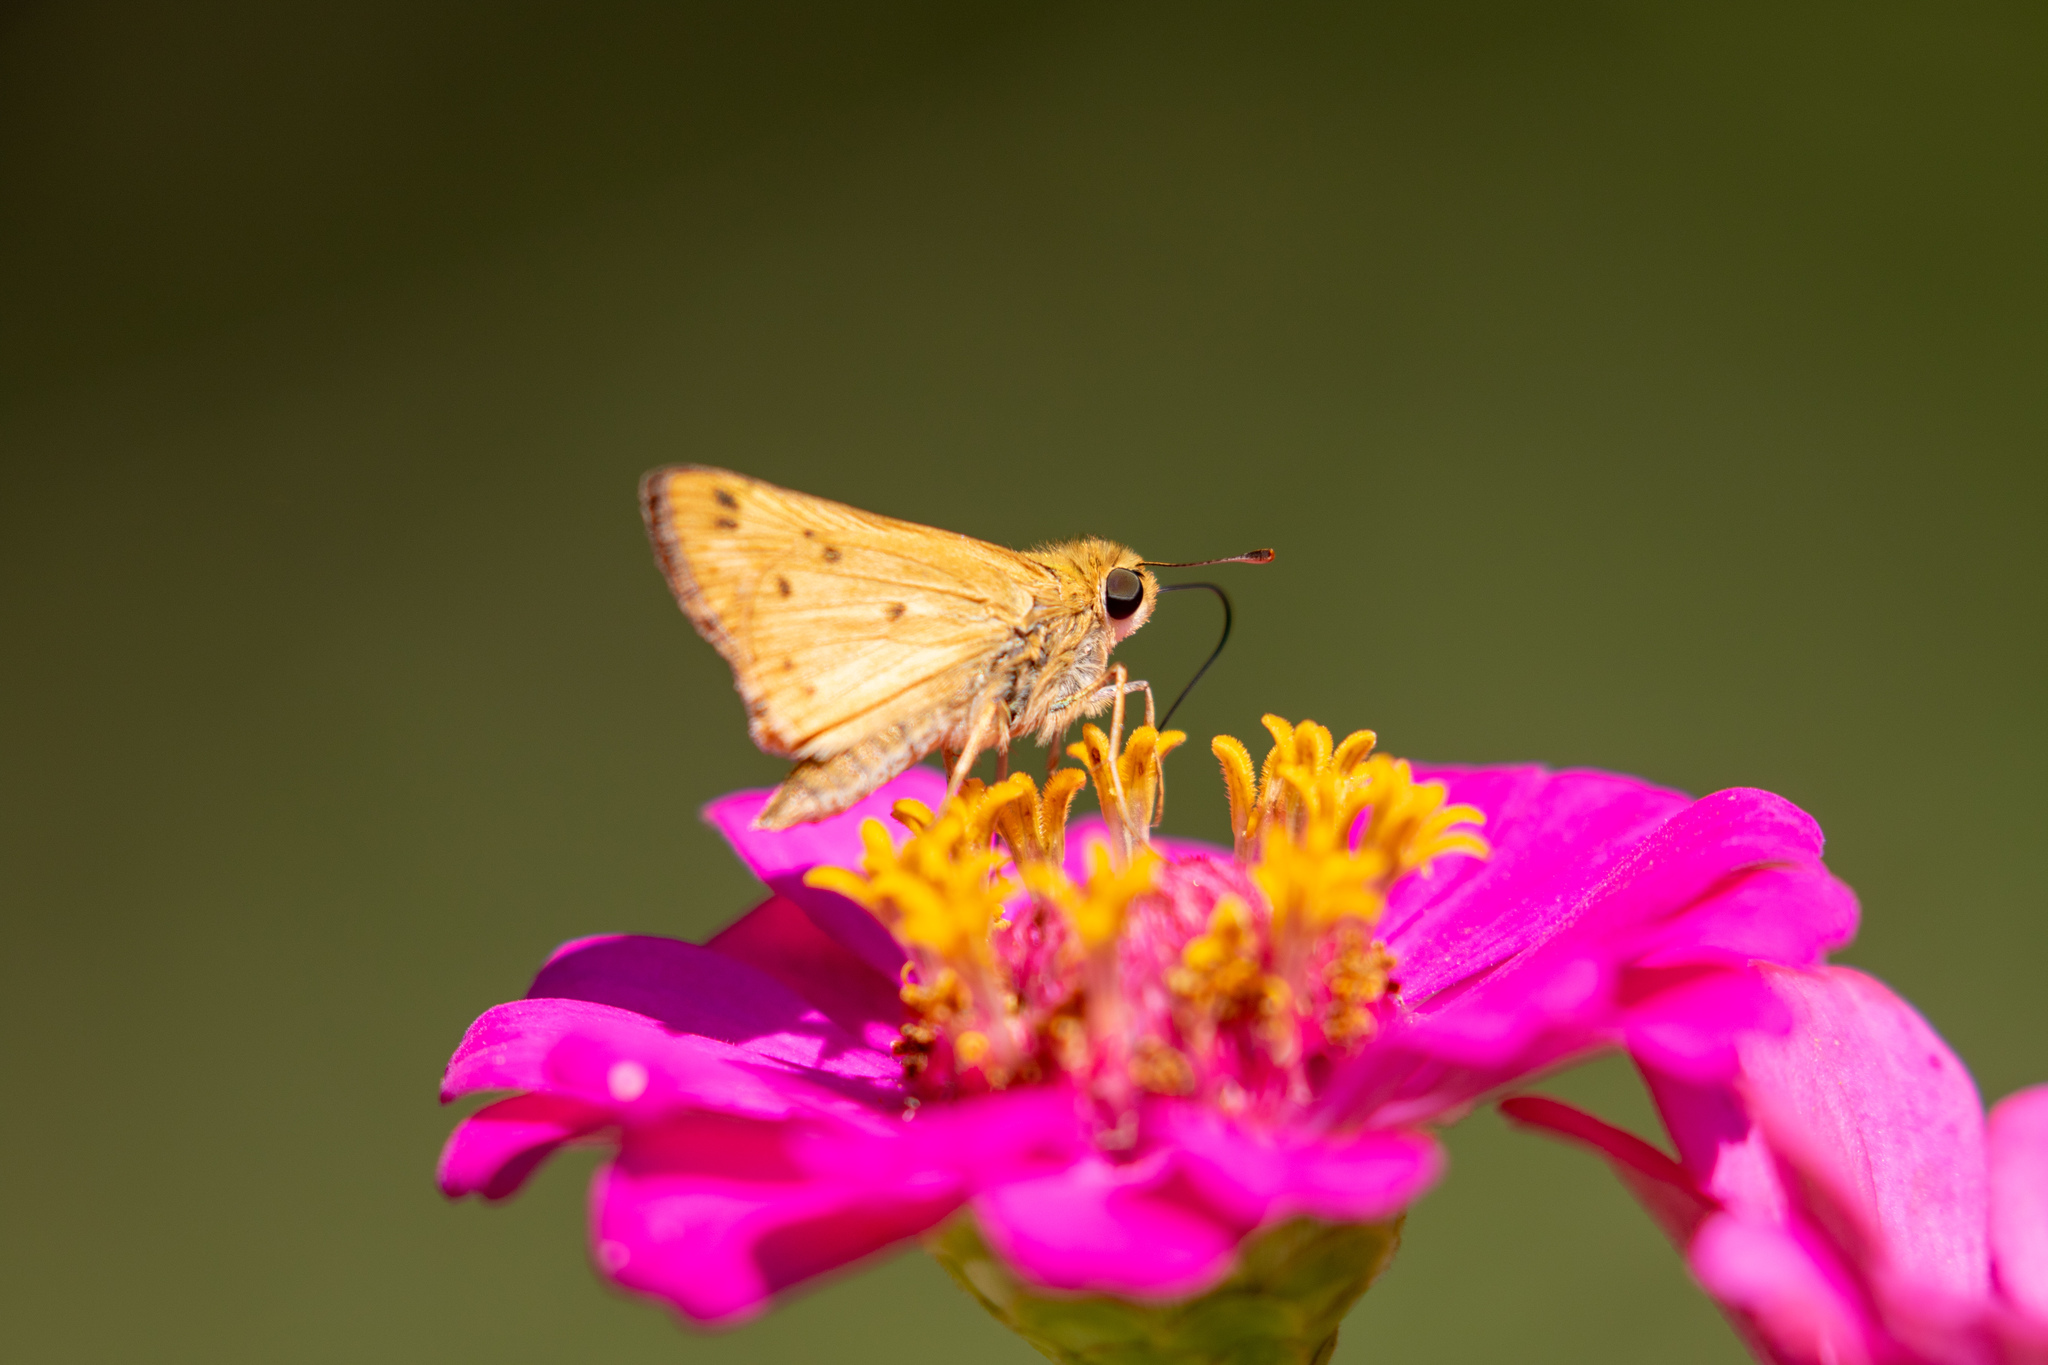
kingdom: Animalia
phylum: Arthropoda
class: Insecta
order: Lepidoptera
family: Hesperiidae
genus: Hylephila
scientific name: Hylephila phyleus
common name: Fiery skipper
